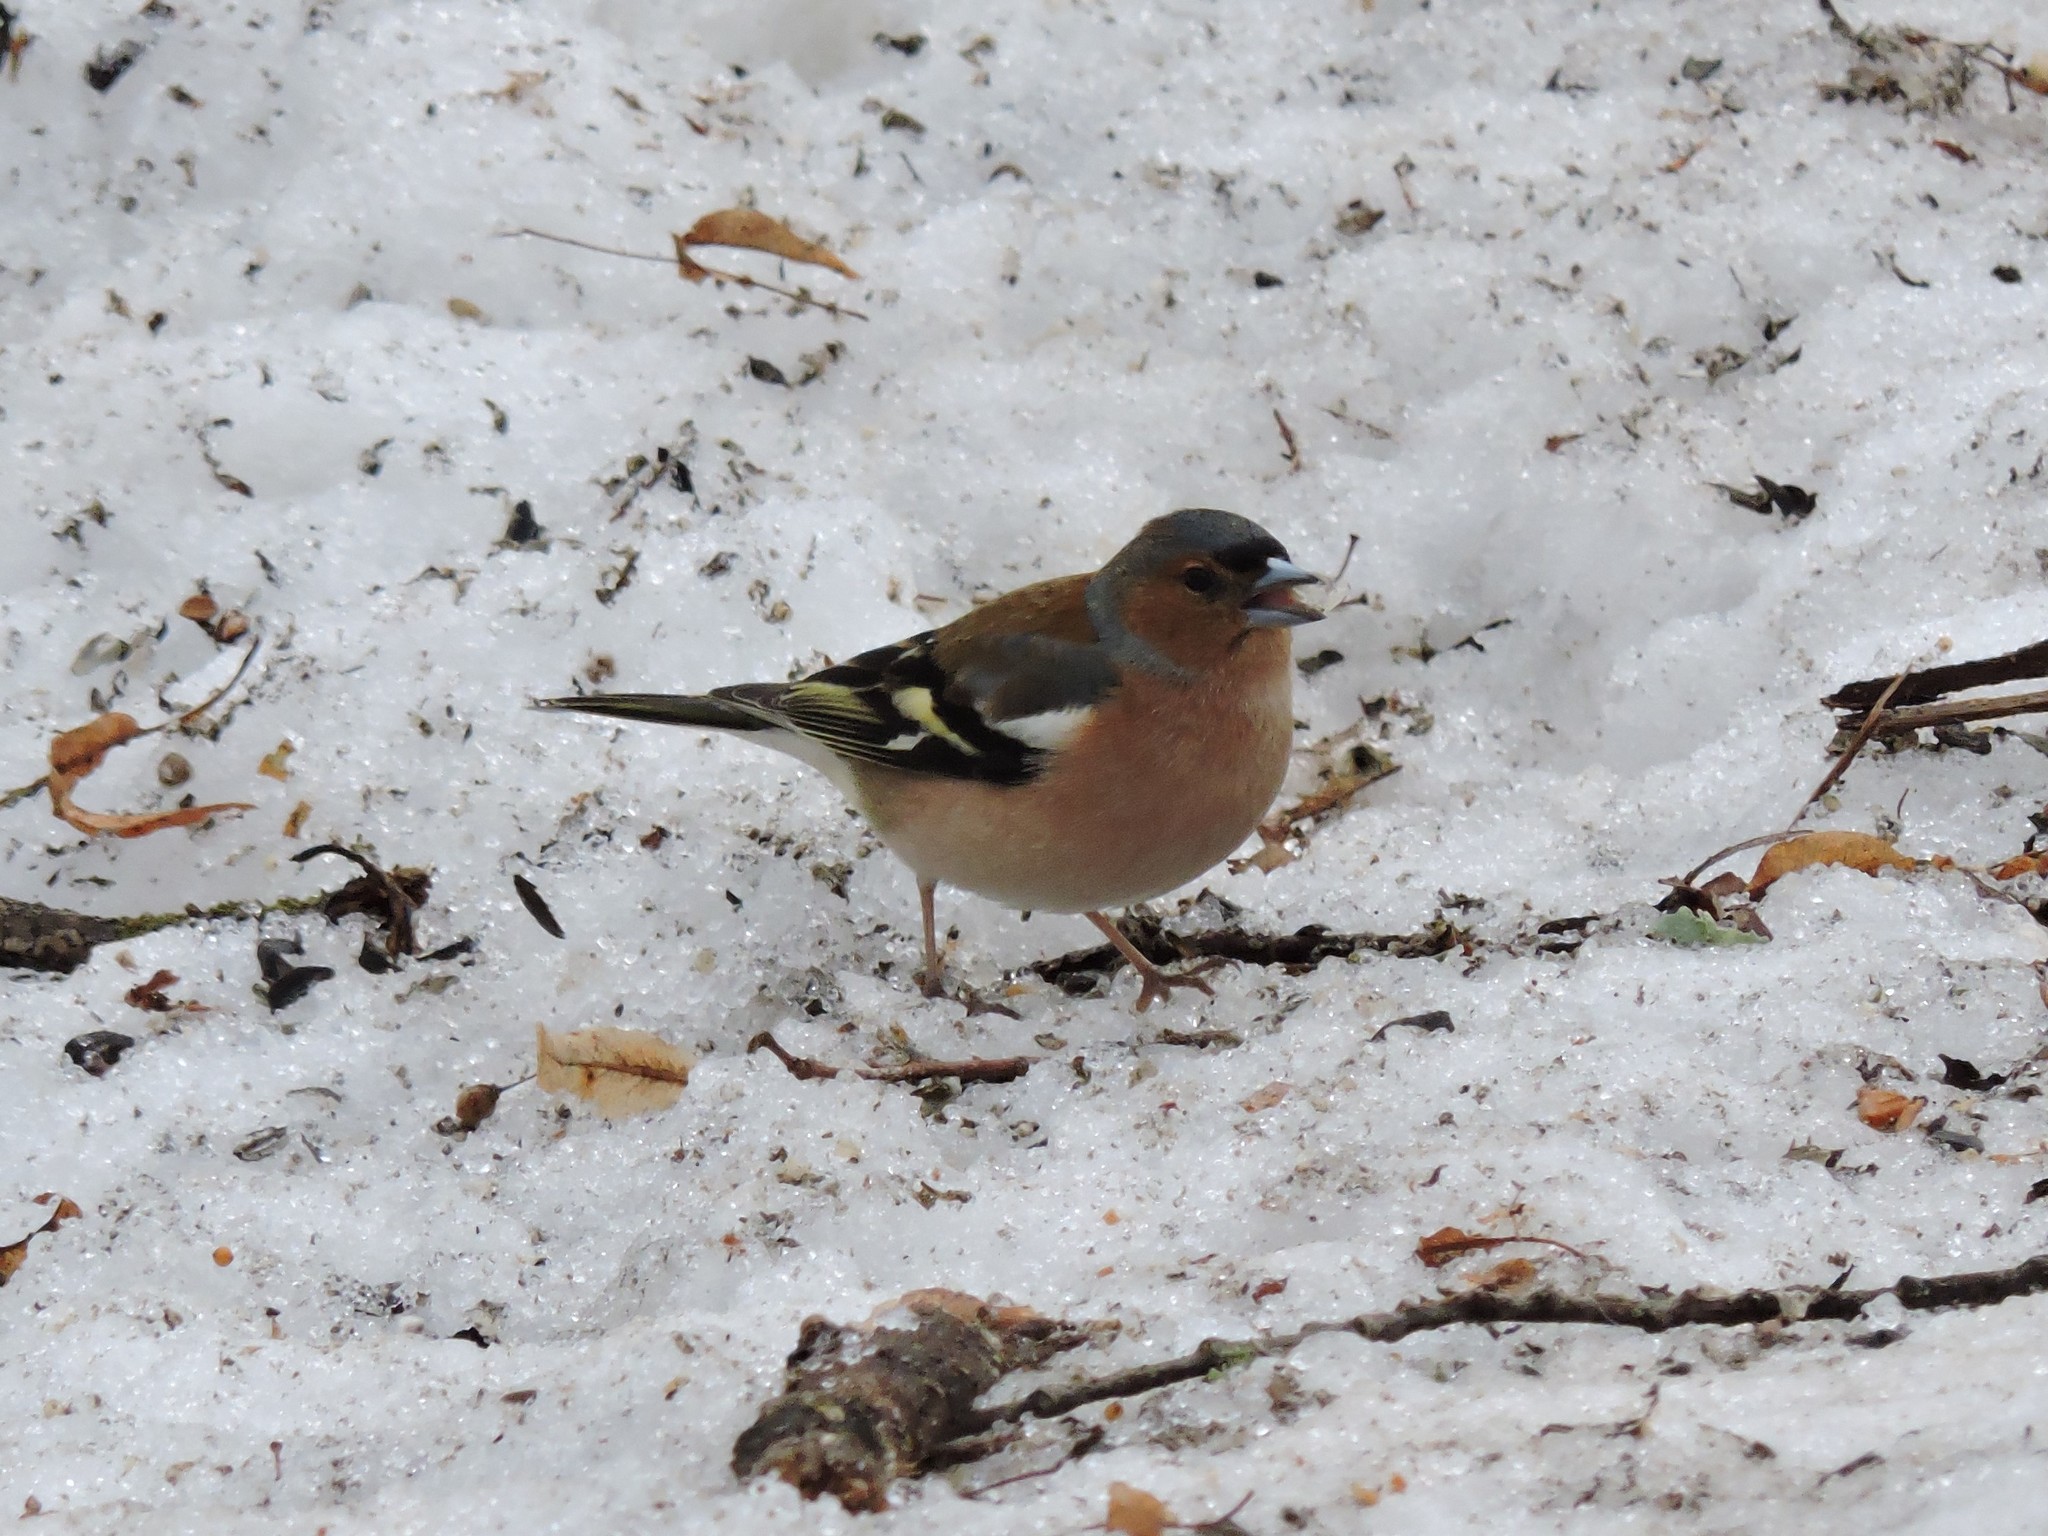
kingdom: Animalia
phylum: Chordata
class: Aves
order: Passeriformes
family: Fringillidae
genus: Fringilla
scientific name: Fringilla coelebs
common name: Common chaffinch
